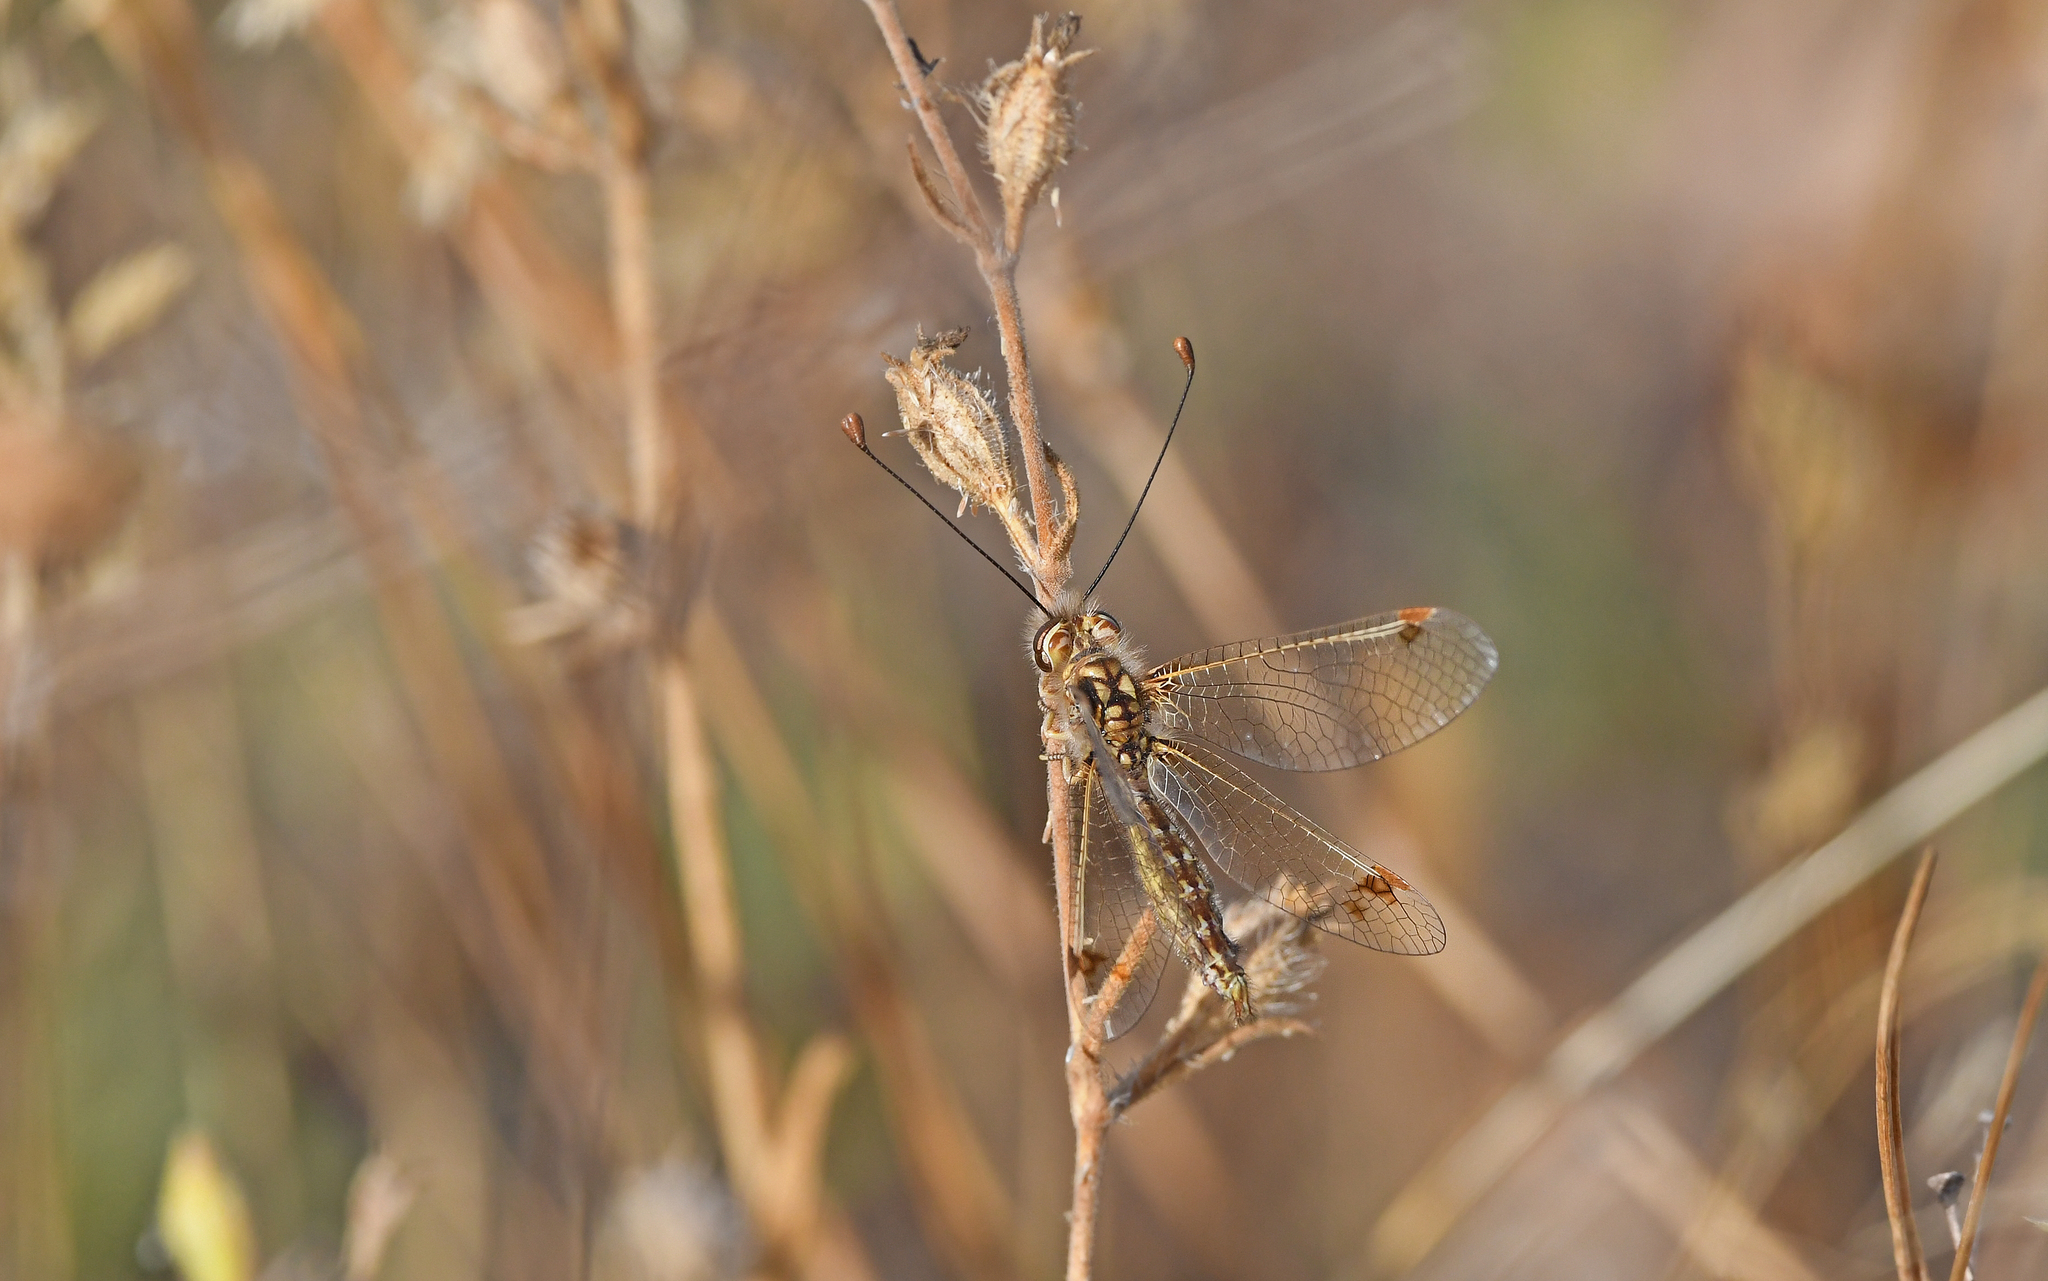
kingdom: Animalia
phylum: Arthropoda
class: Insecta
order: Neuroptera
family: Ascalaphidae
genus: Deleproctophylla
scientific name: Deleproctophylla australis
